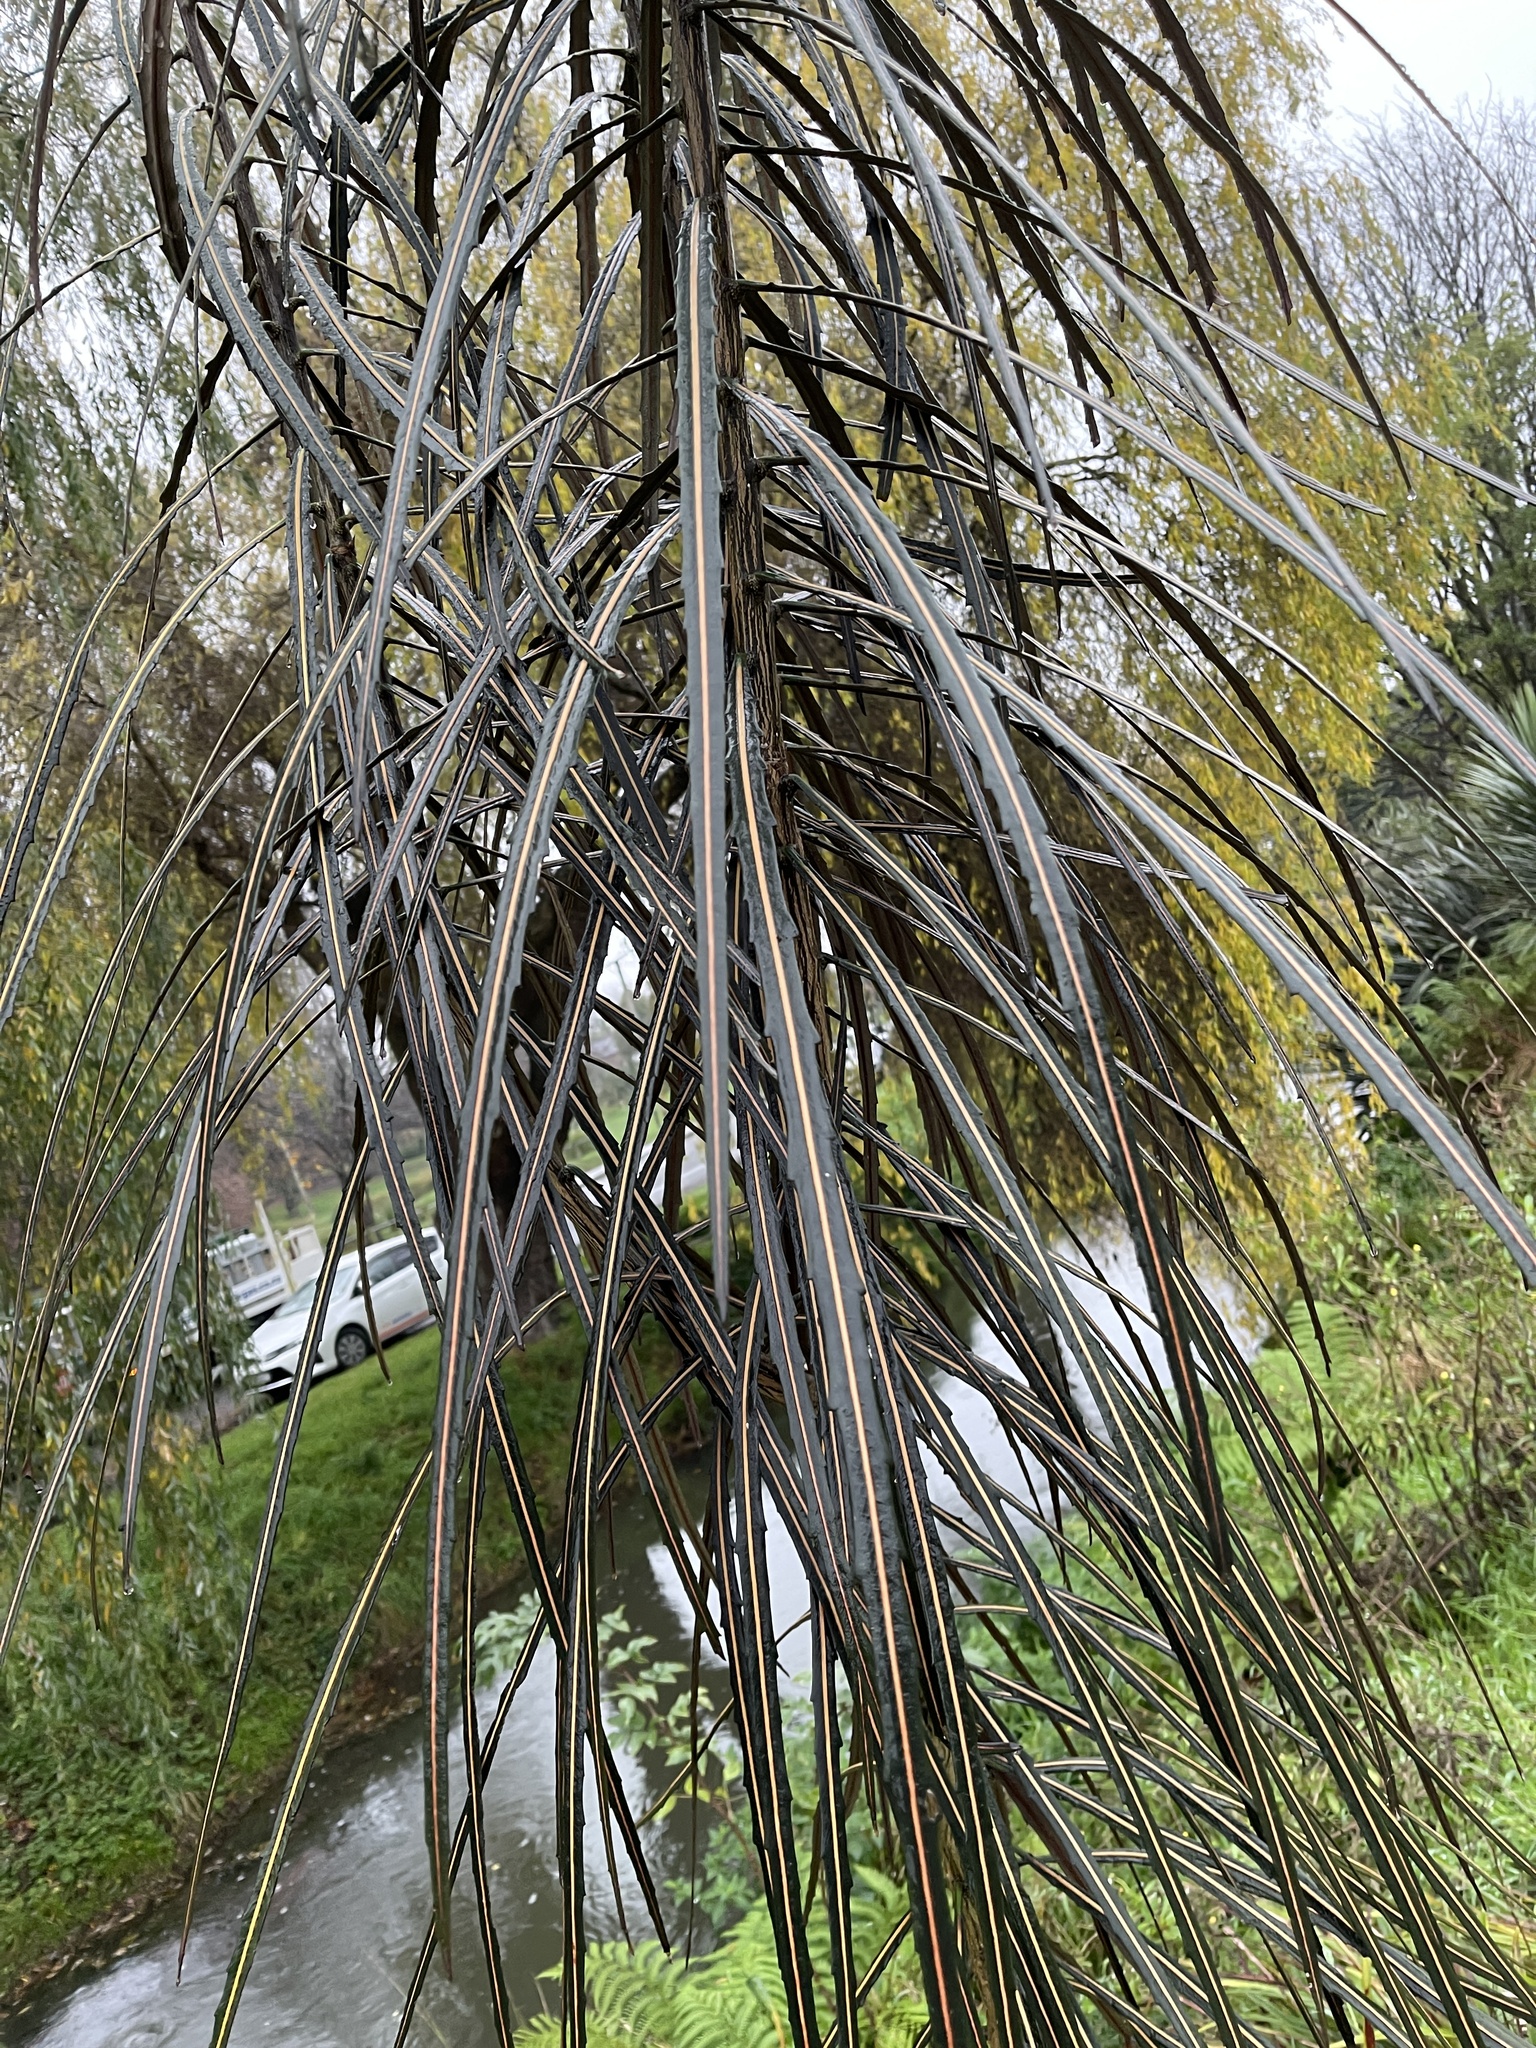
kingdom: Plantae
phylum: Tracheophyta
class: Magnoliopsida
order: Apiales
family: Araliaceae
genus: Pseudopanax
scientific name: Pseudopanax crassifolius
